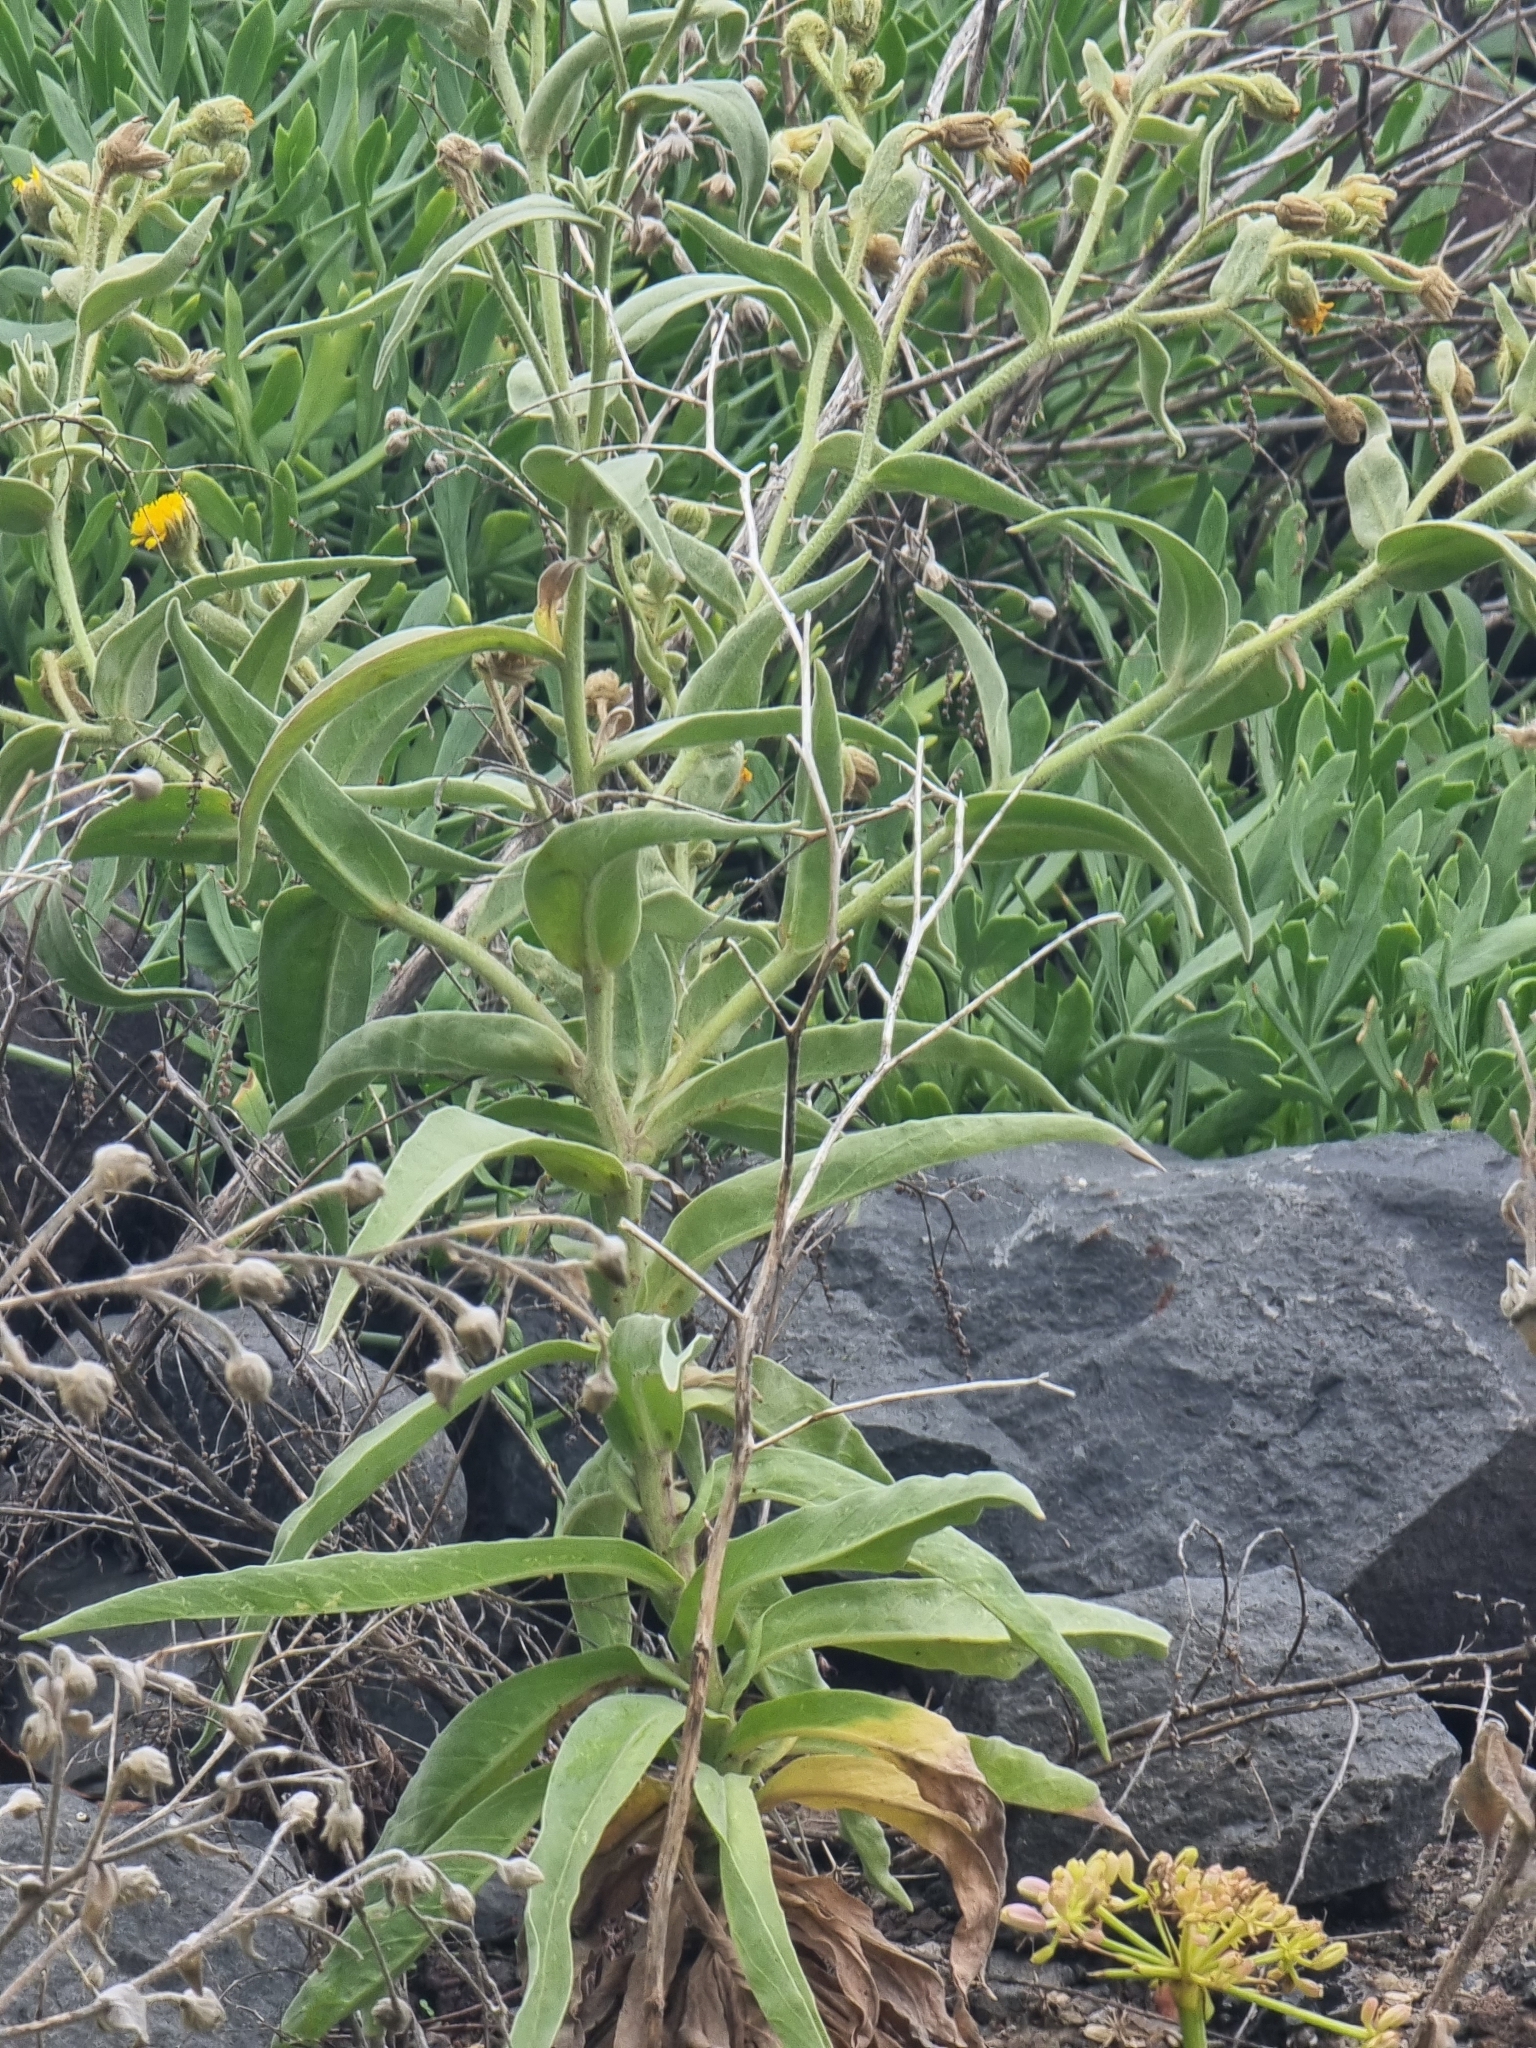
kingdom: Plantae
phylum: Tracheophyta
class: Magnoliopsida
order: Asterales
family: Asteraceae
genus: Andryala
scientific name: Andryala glandulosa
